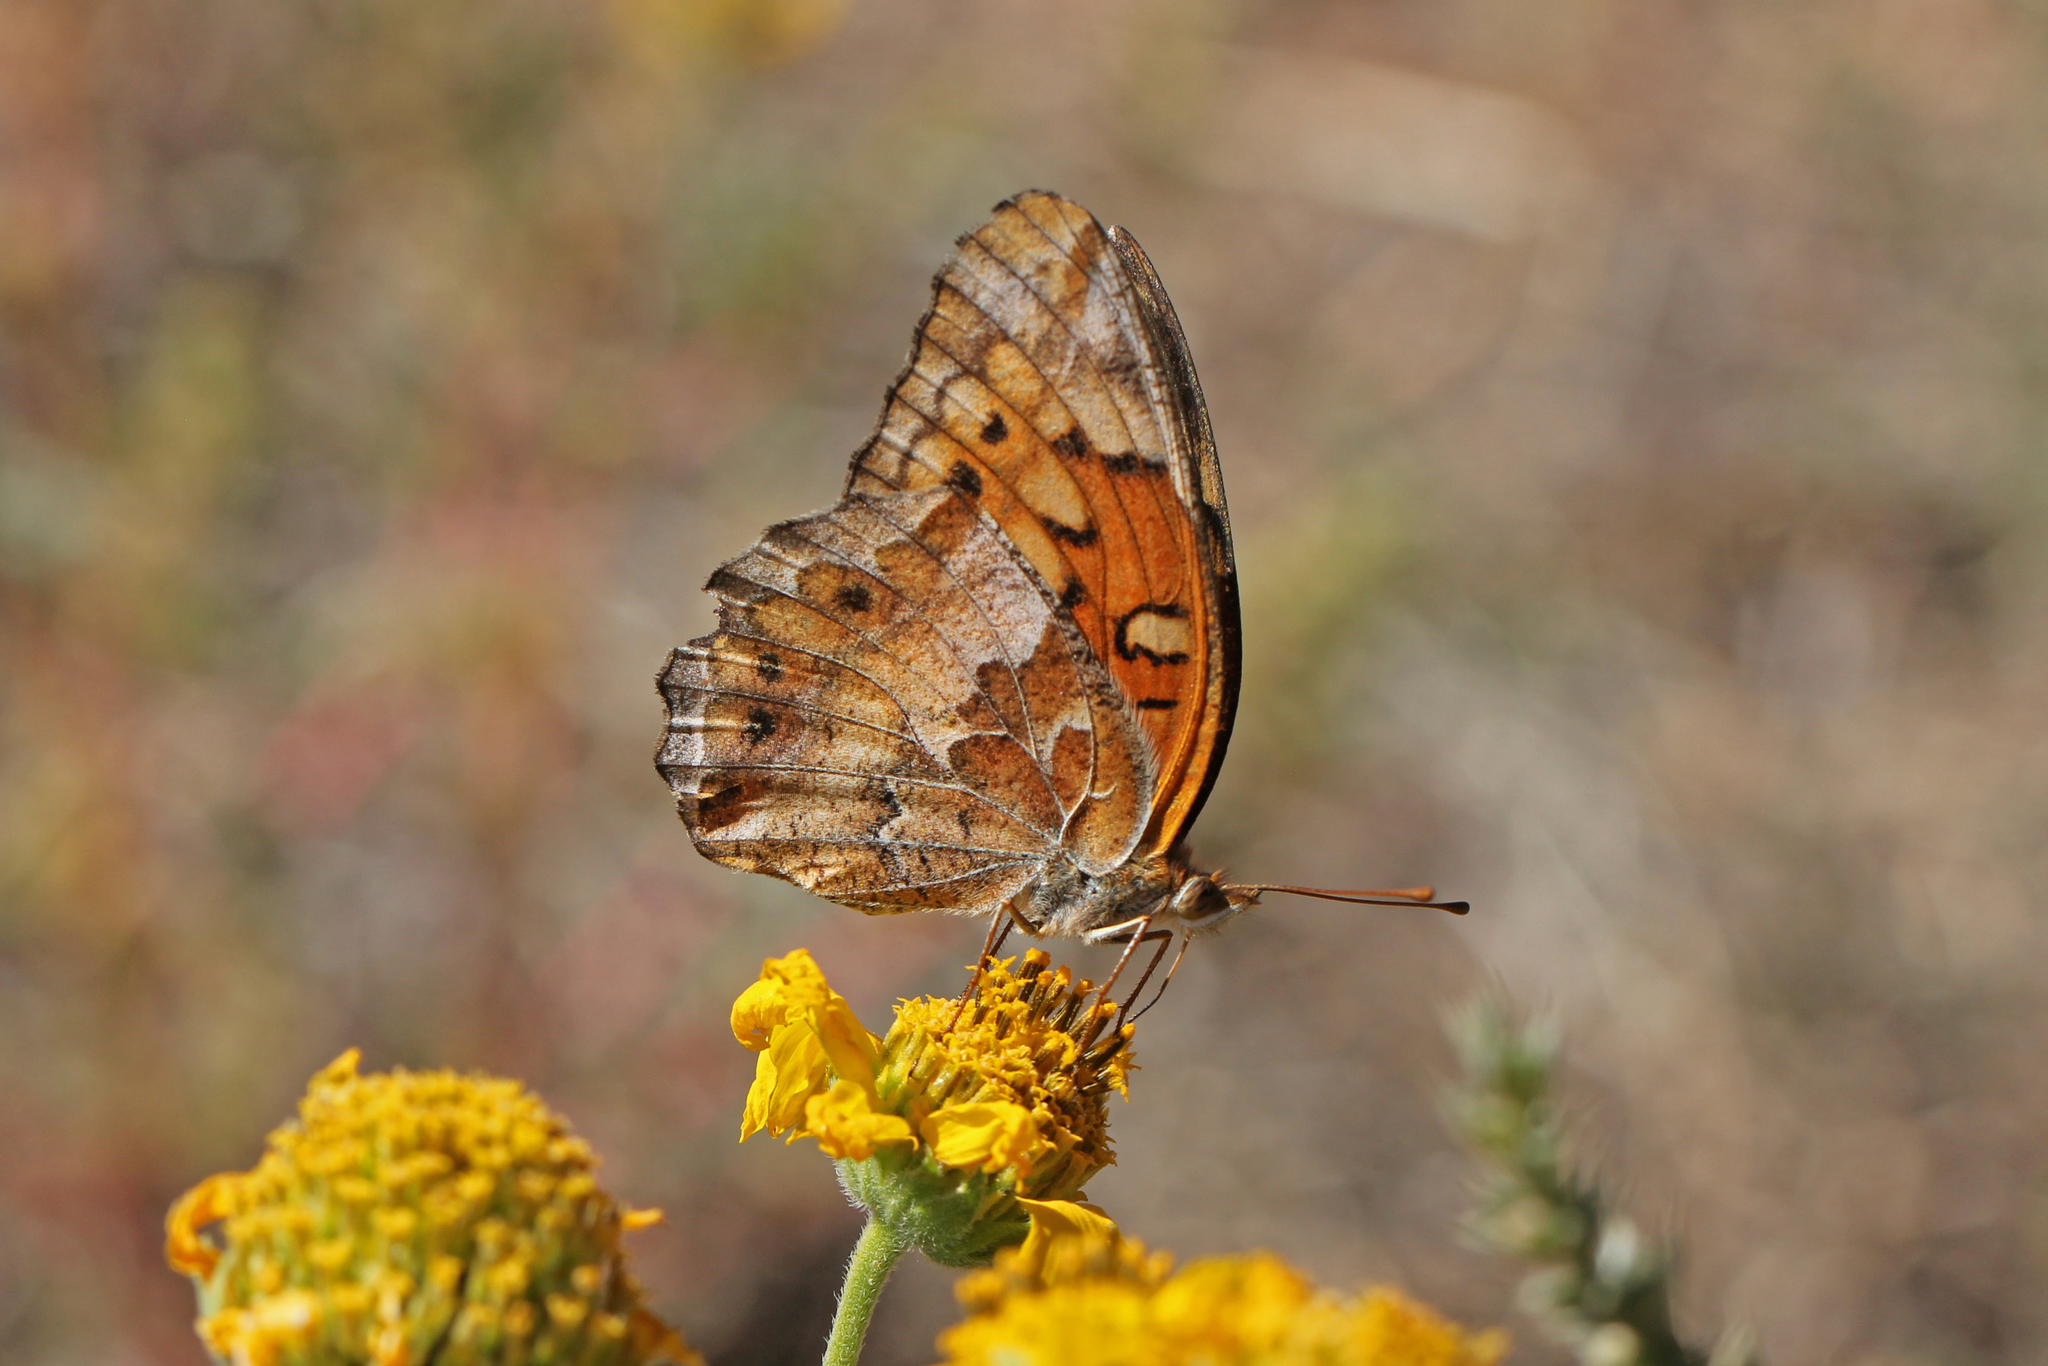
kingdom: Animalia
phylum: Arthropoda
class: Insecta
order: Lepidoptera
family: Nymphalidae
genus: Euptoieta
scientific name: Euptoieta claudia
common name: Variegated fritillary
